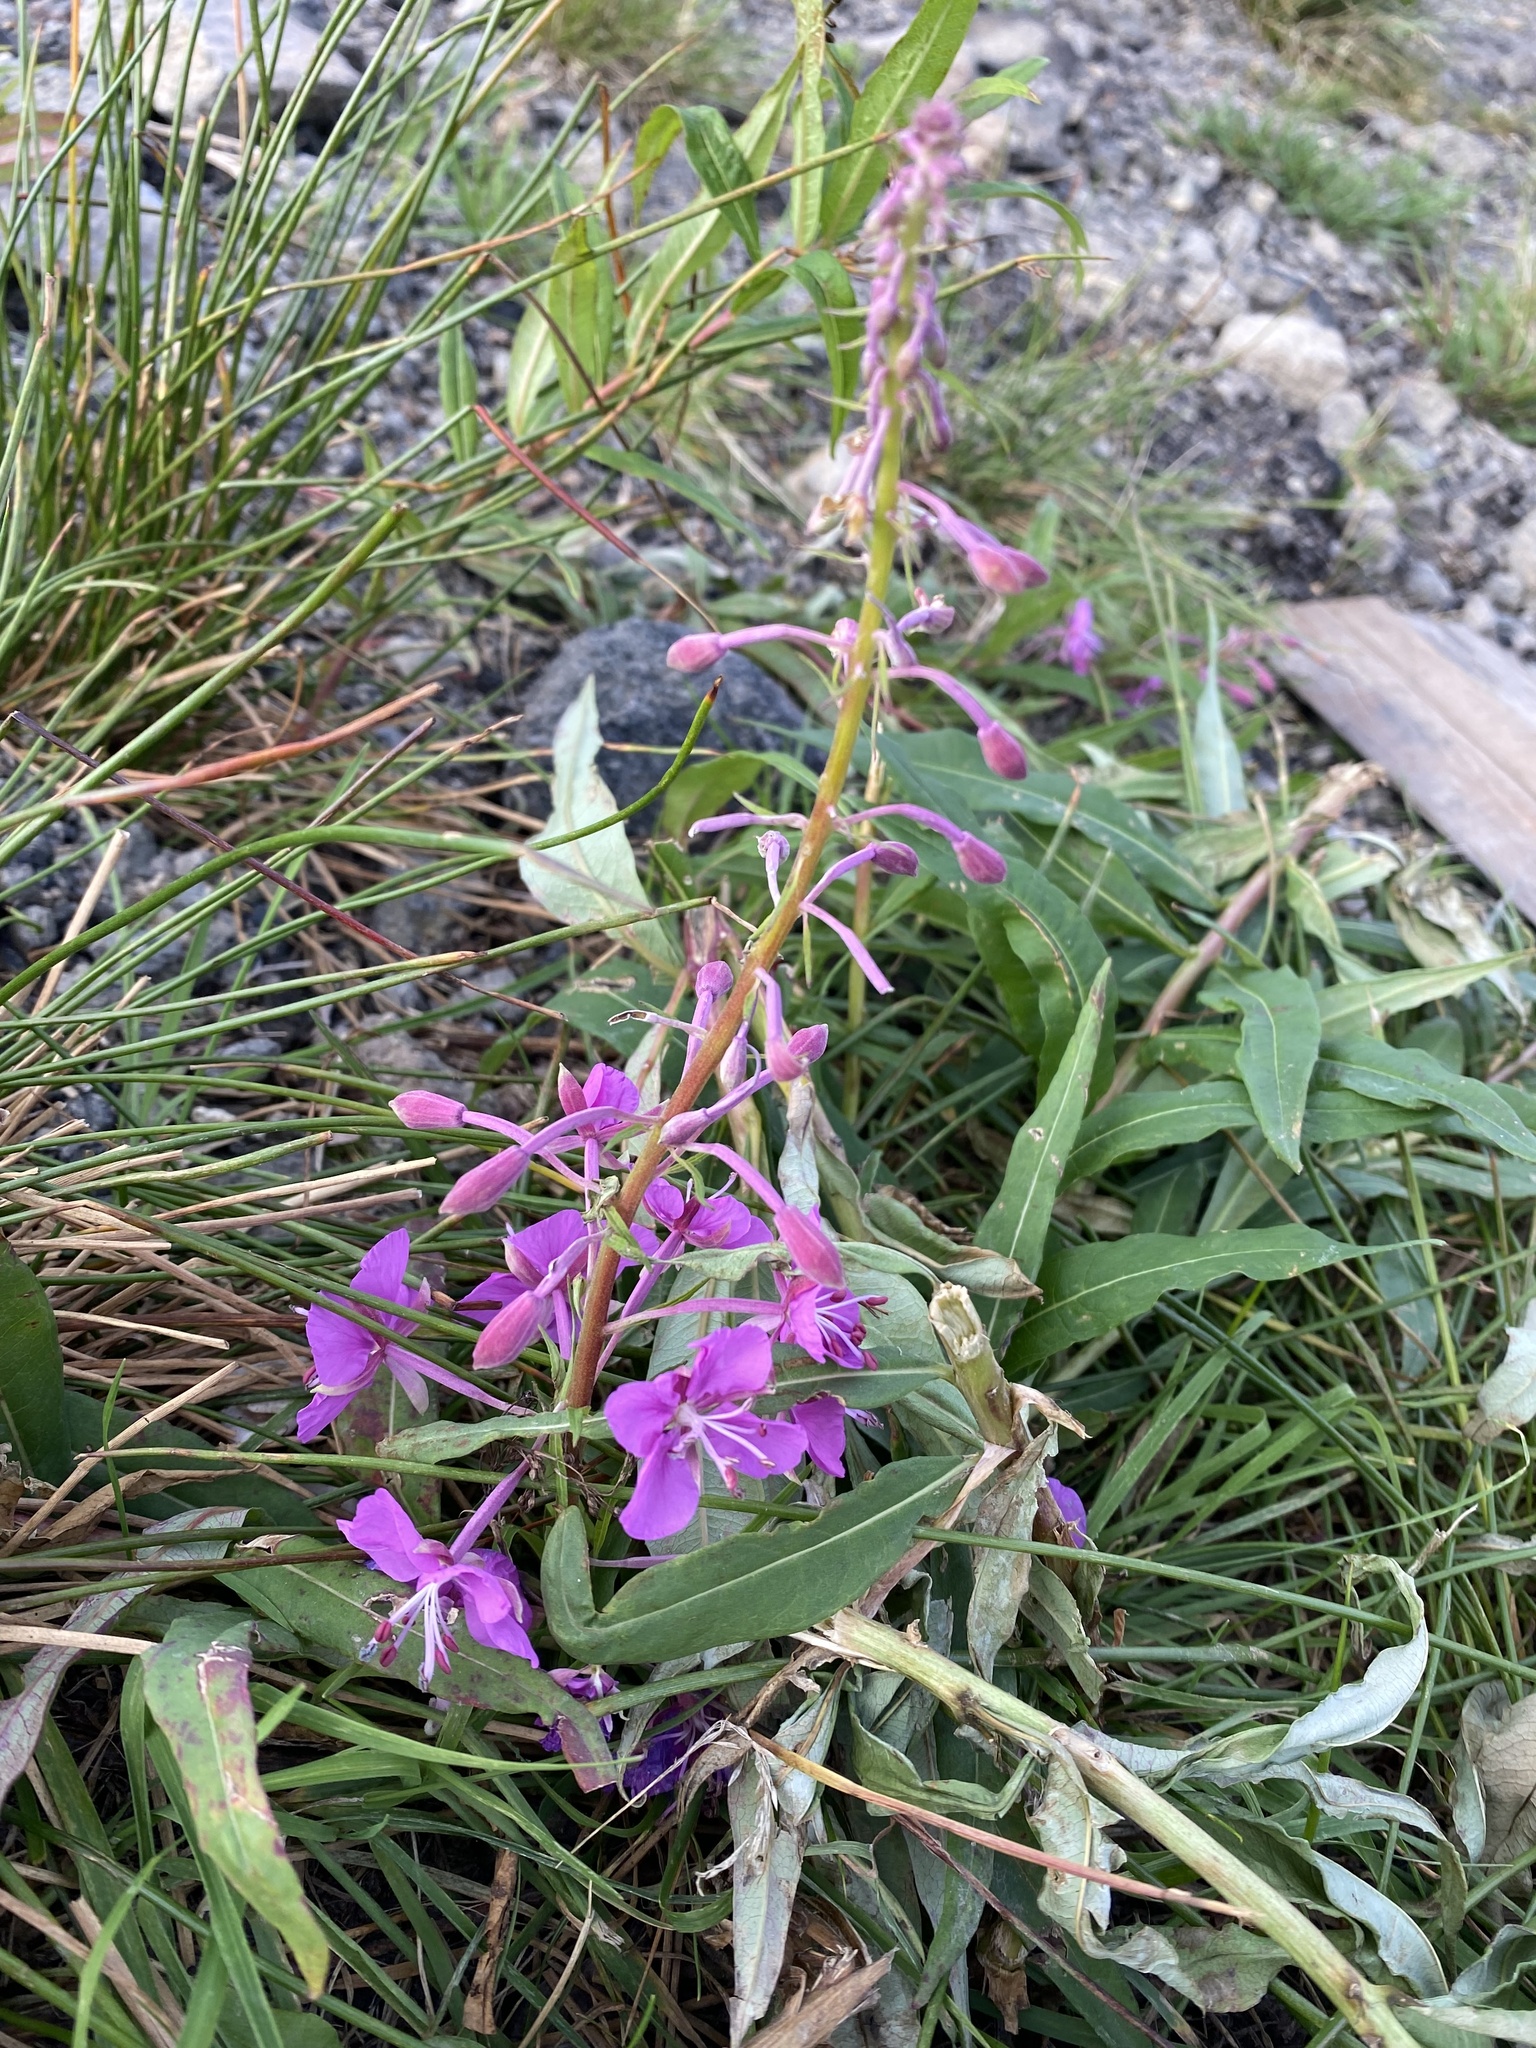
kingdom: Plantae
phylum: Tracheophyta
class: Magnoliopsida
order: Myrtales
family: Onagraceae
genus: Chamaenerion
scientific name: Chamaenerion angustifolium
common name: Fireweed
